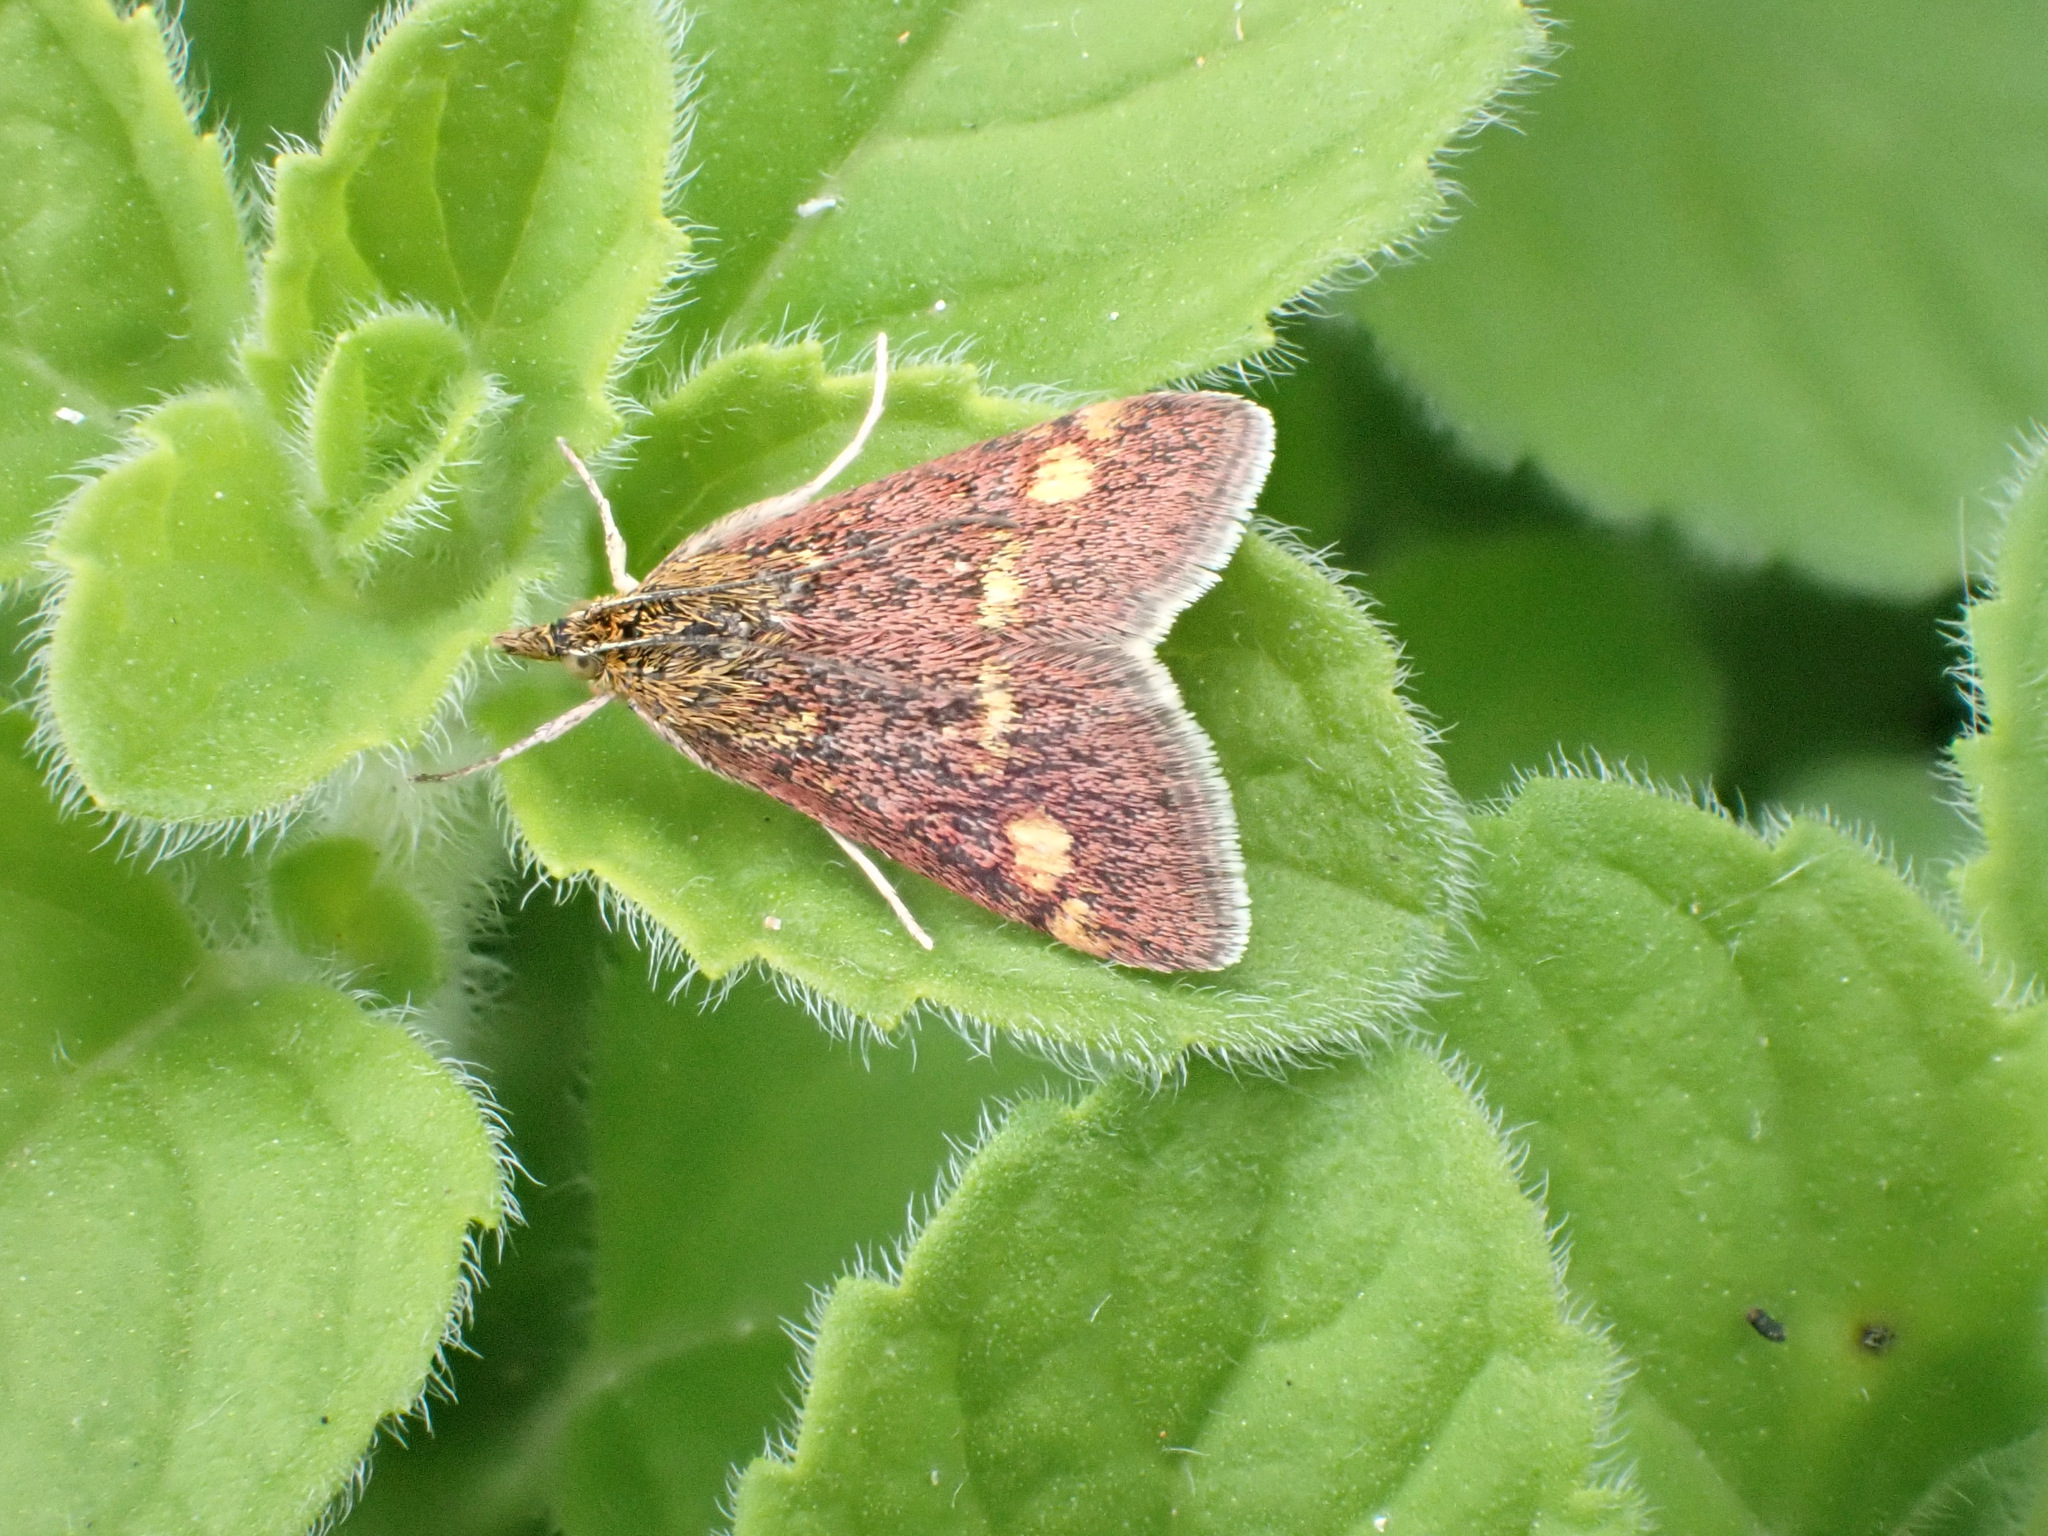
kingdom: Animalia
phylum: Arthropoda
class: Insecta
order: Lepidoptera
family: Crambidae
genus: Pyrausta
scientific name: Pyrausta purpuralis
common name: Common purple & gold
